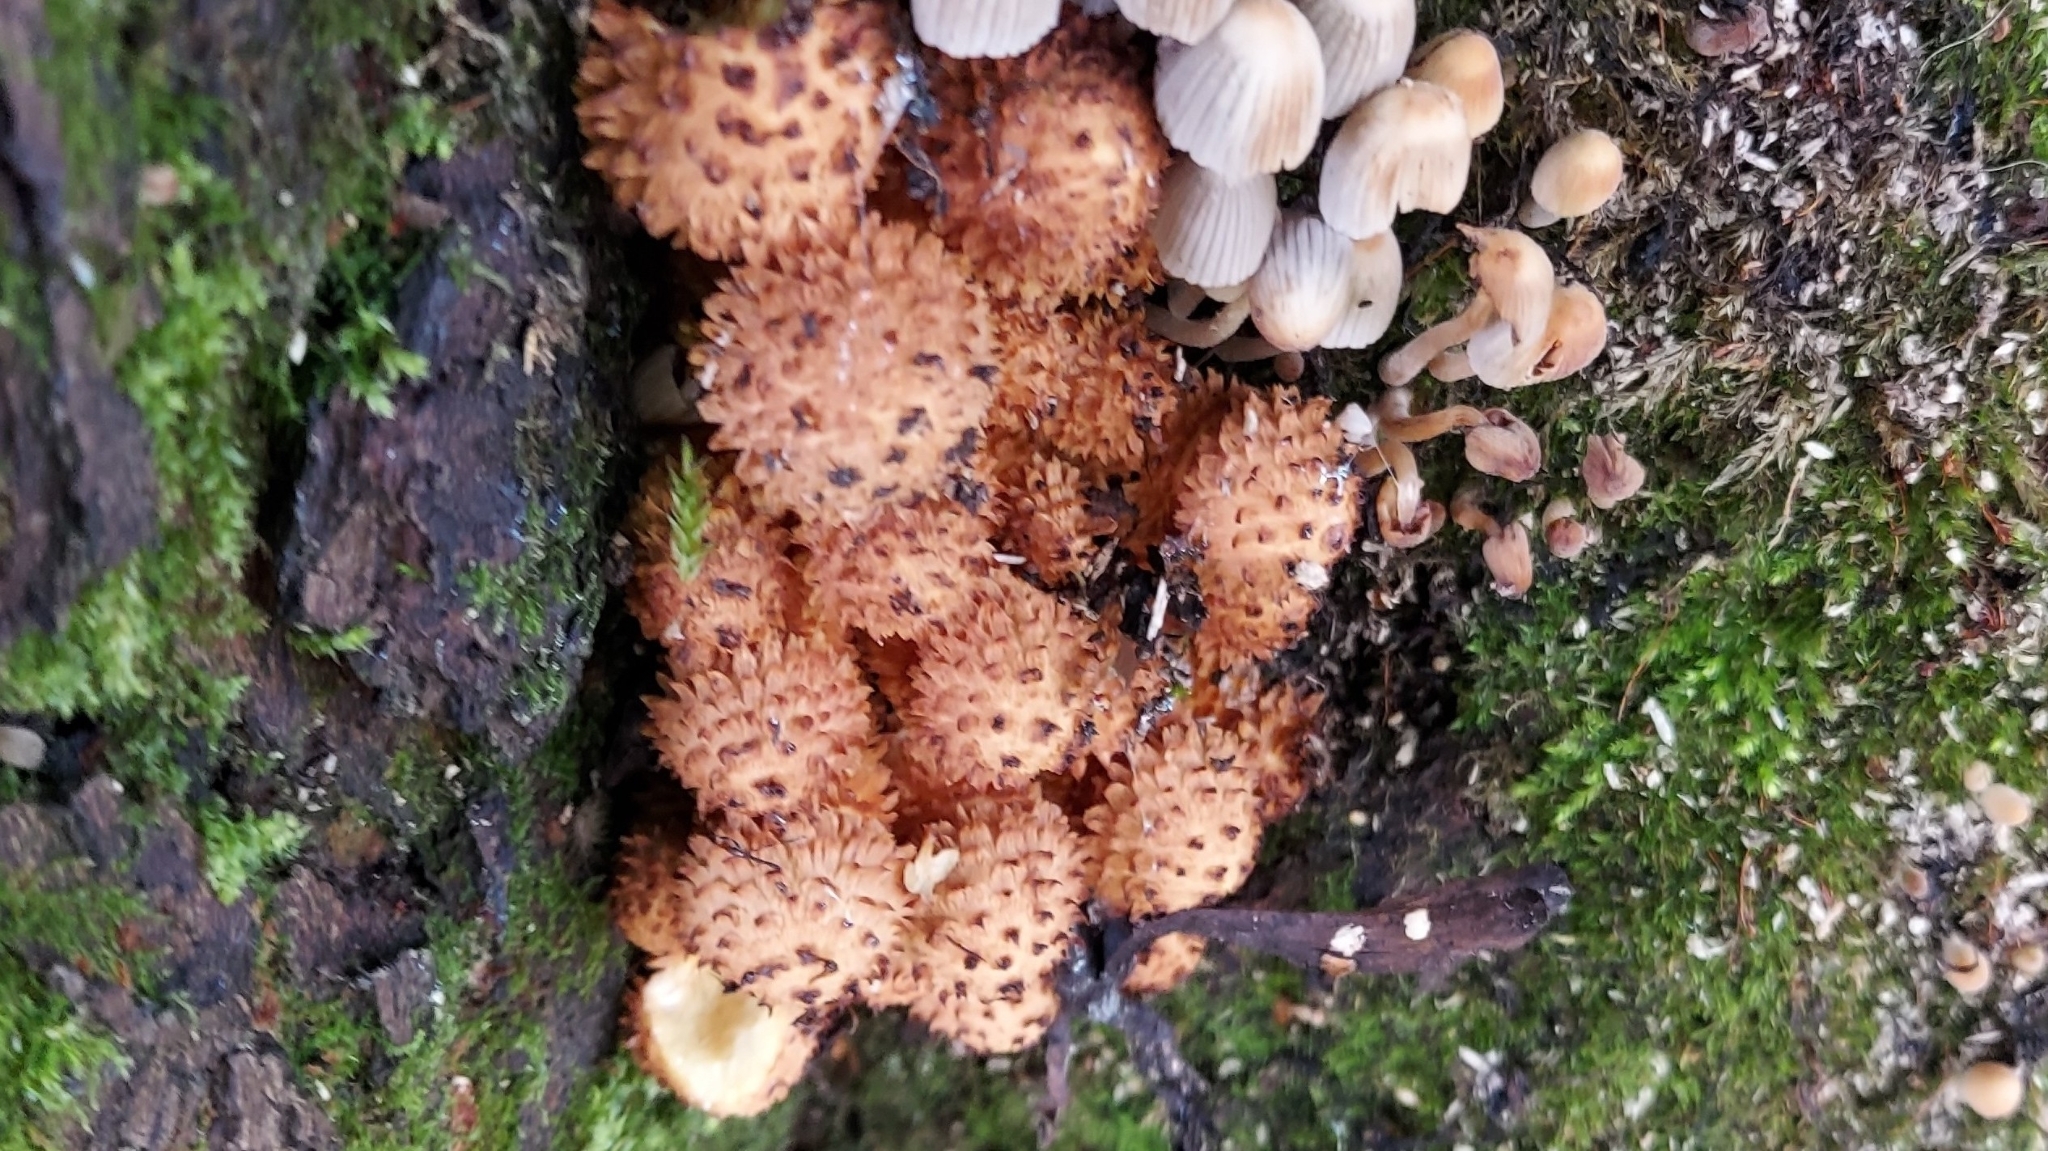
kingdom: Fungi
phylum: Basidiomycota
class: Agaricomycetes
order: Agaricales
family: Strophariaceae
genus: Pholiota
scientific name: Pholiota squarrosa
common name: Shaggy pholiota
